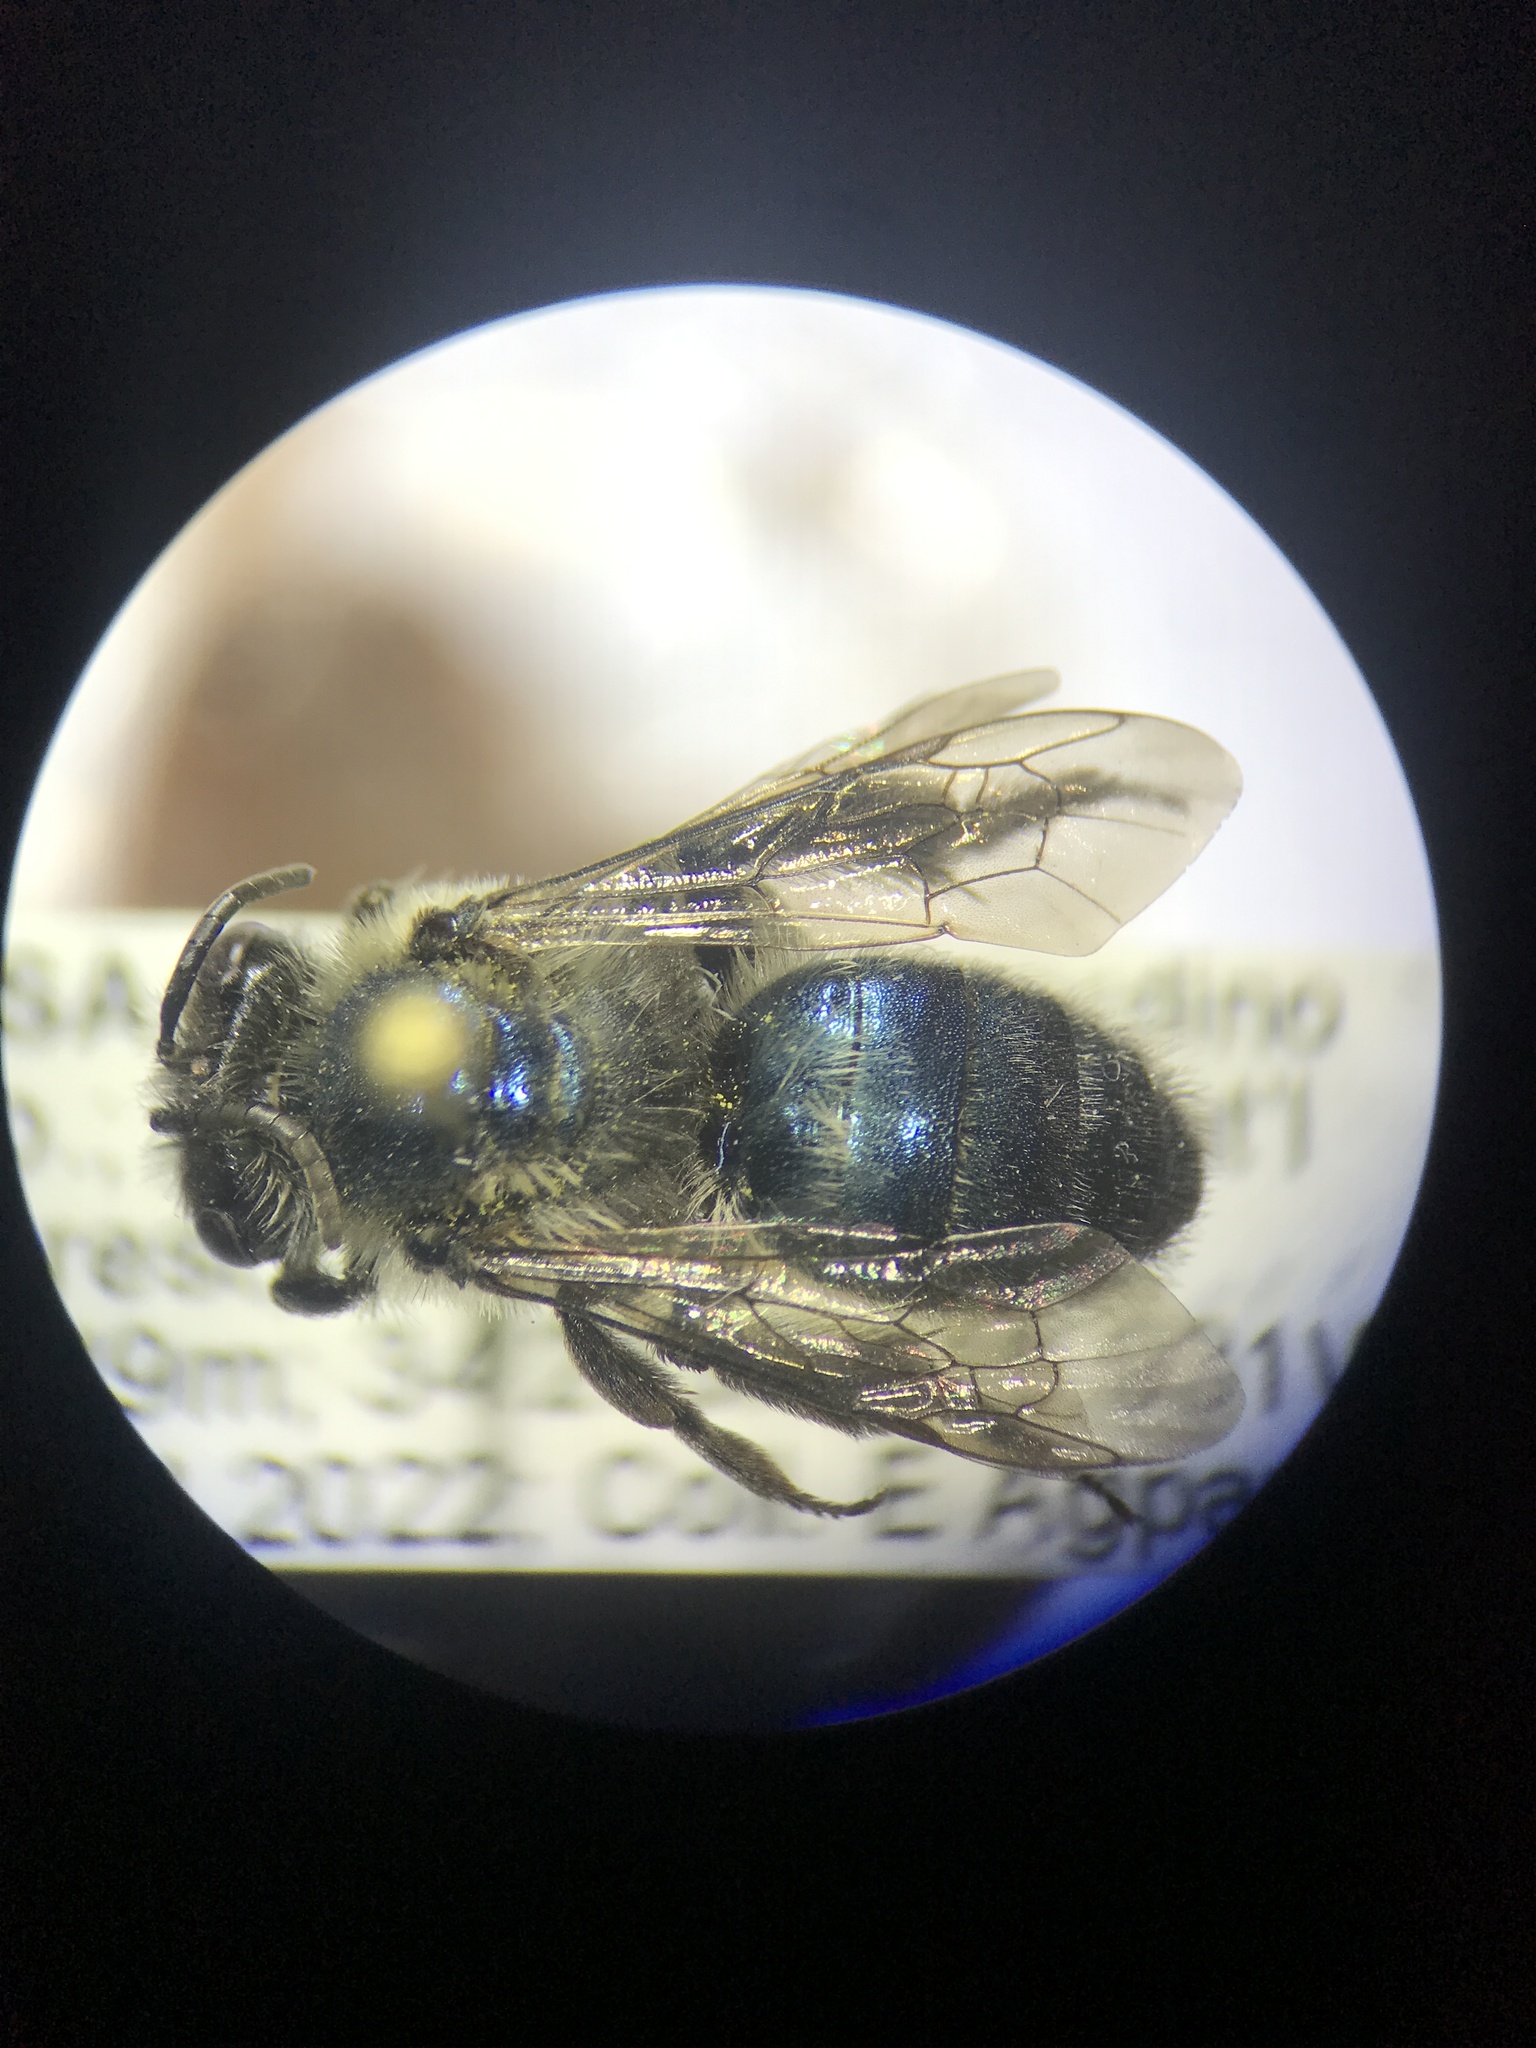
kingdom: Animalia
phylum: Arthropoda
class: Insecta
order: Hymenoptera
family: Andrenidae
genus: Andrena
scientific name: Andrena cerasifolii
